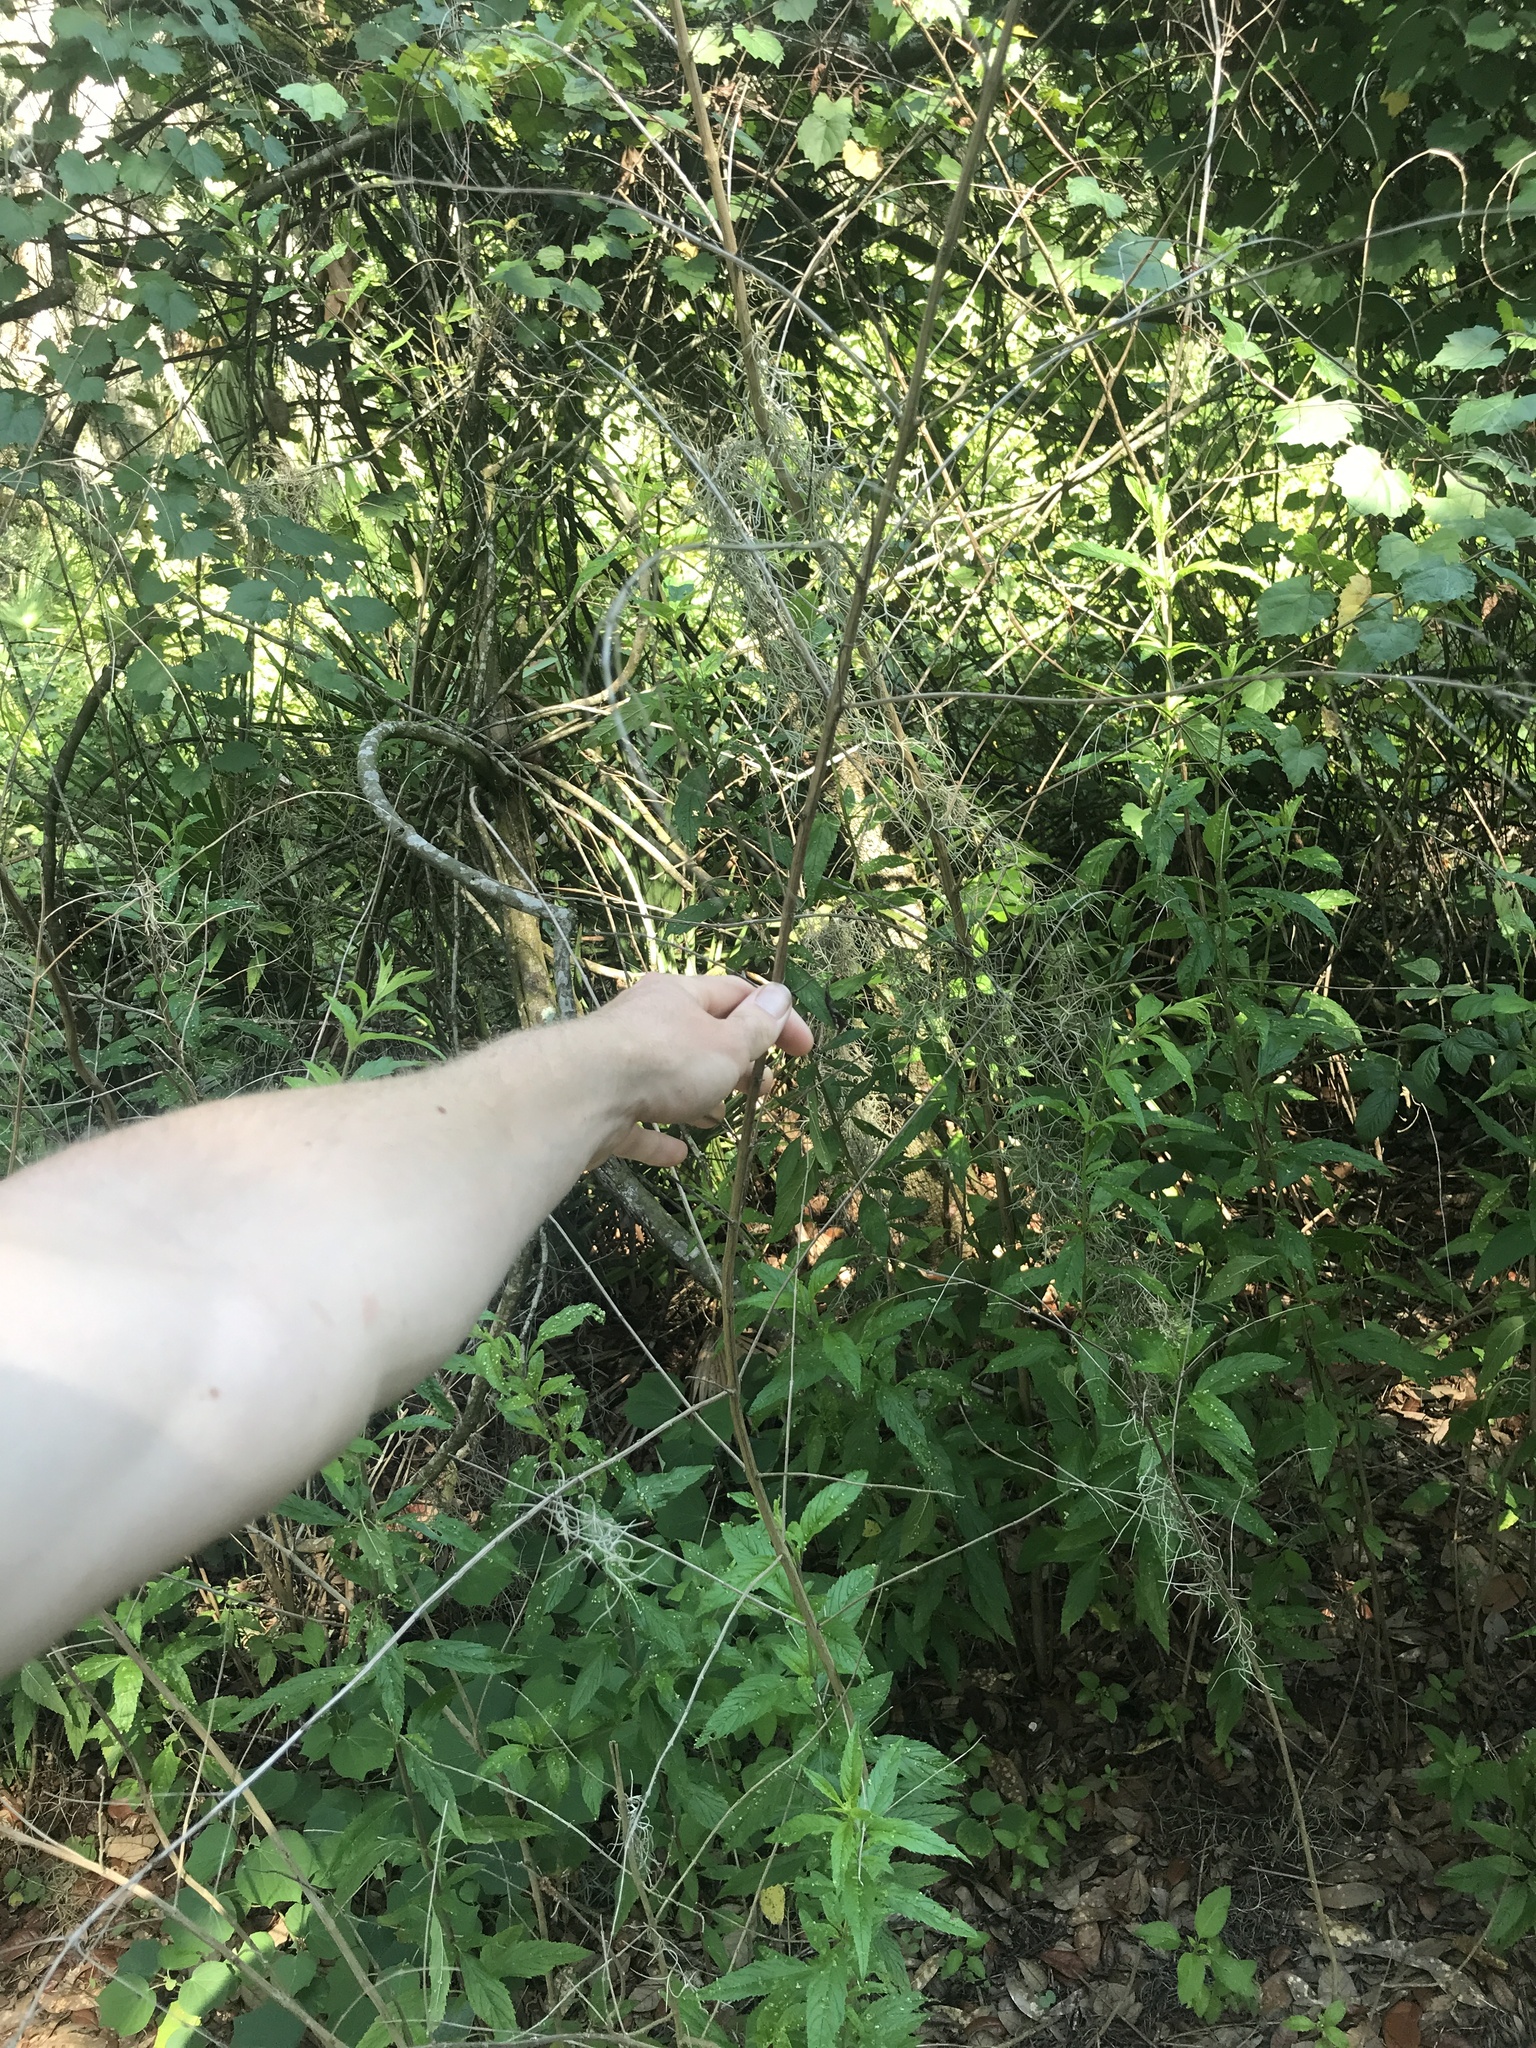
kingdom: Plantae
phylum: Tracheophyta
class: Magnoliopsida
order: Lamiales
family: Lamiaceae
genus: Condea
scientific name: Condea verticillata
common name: John charles
